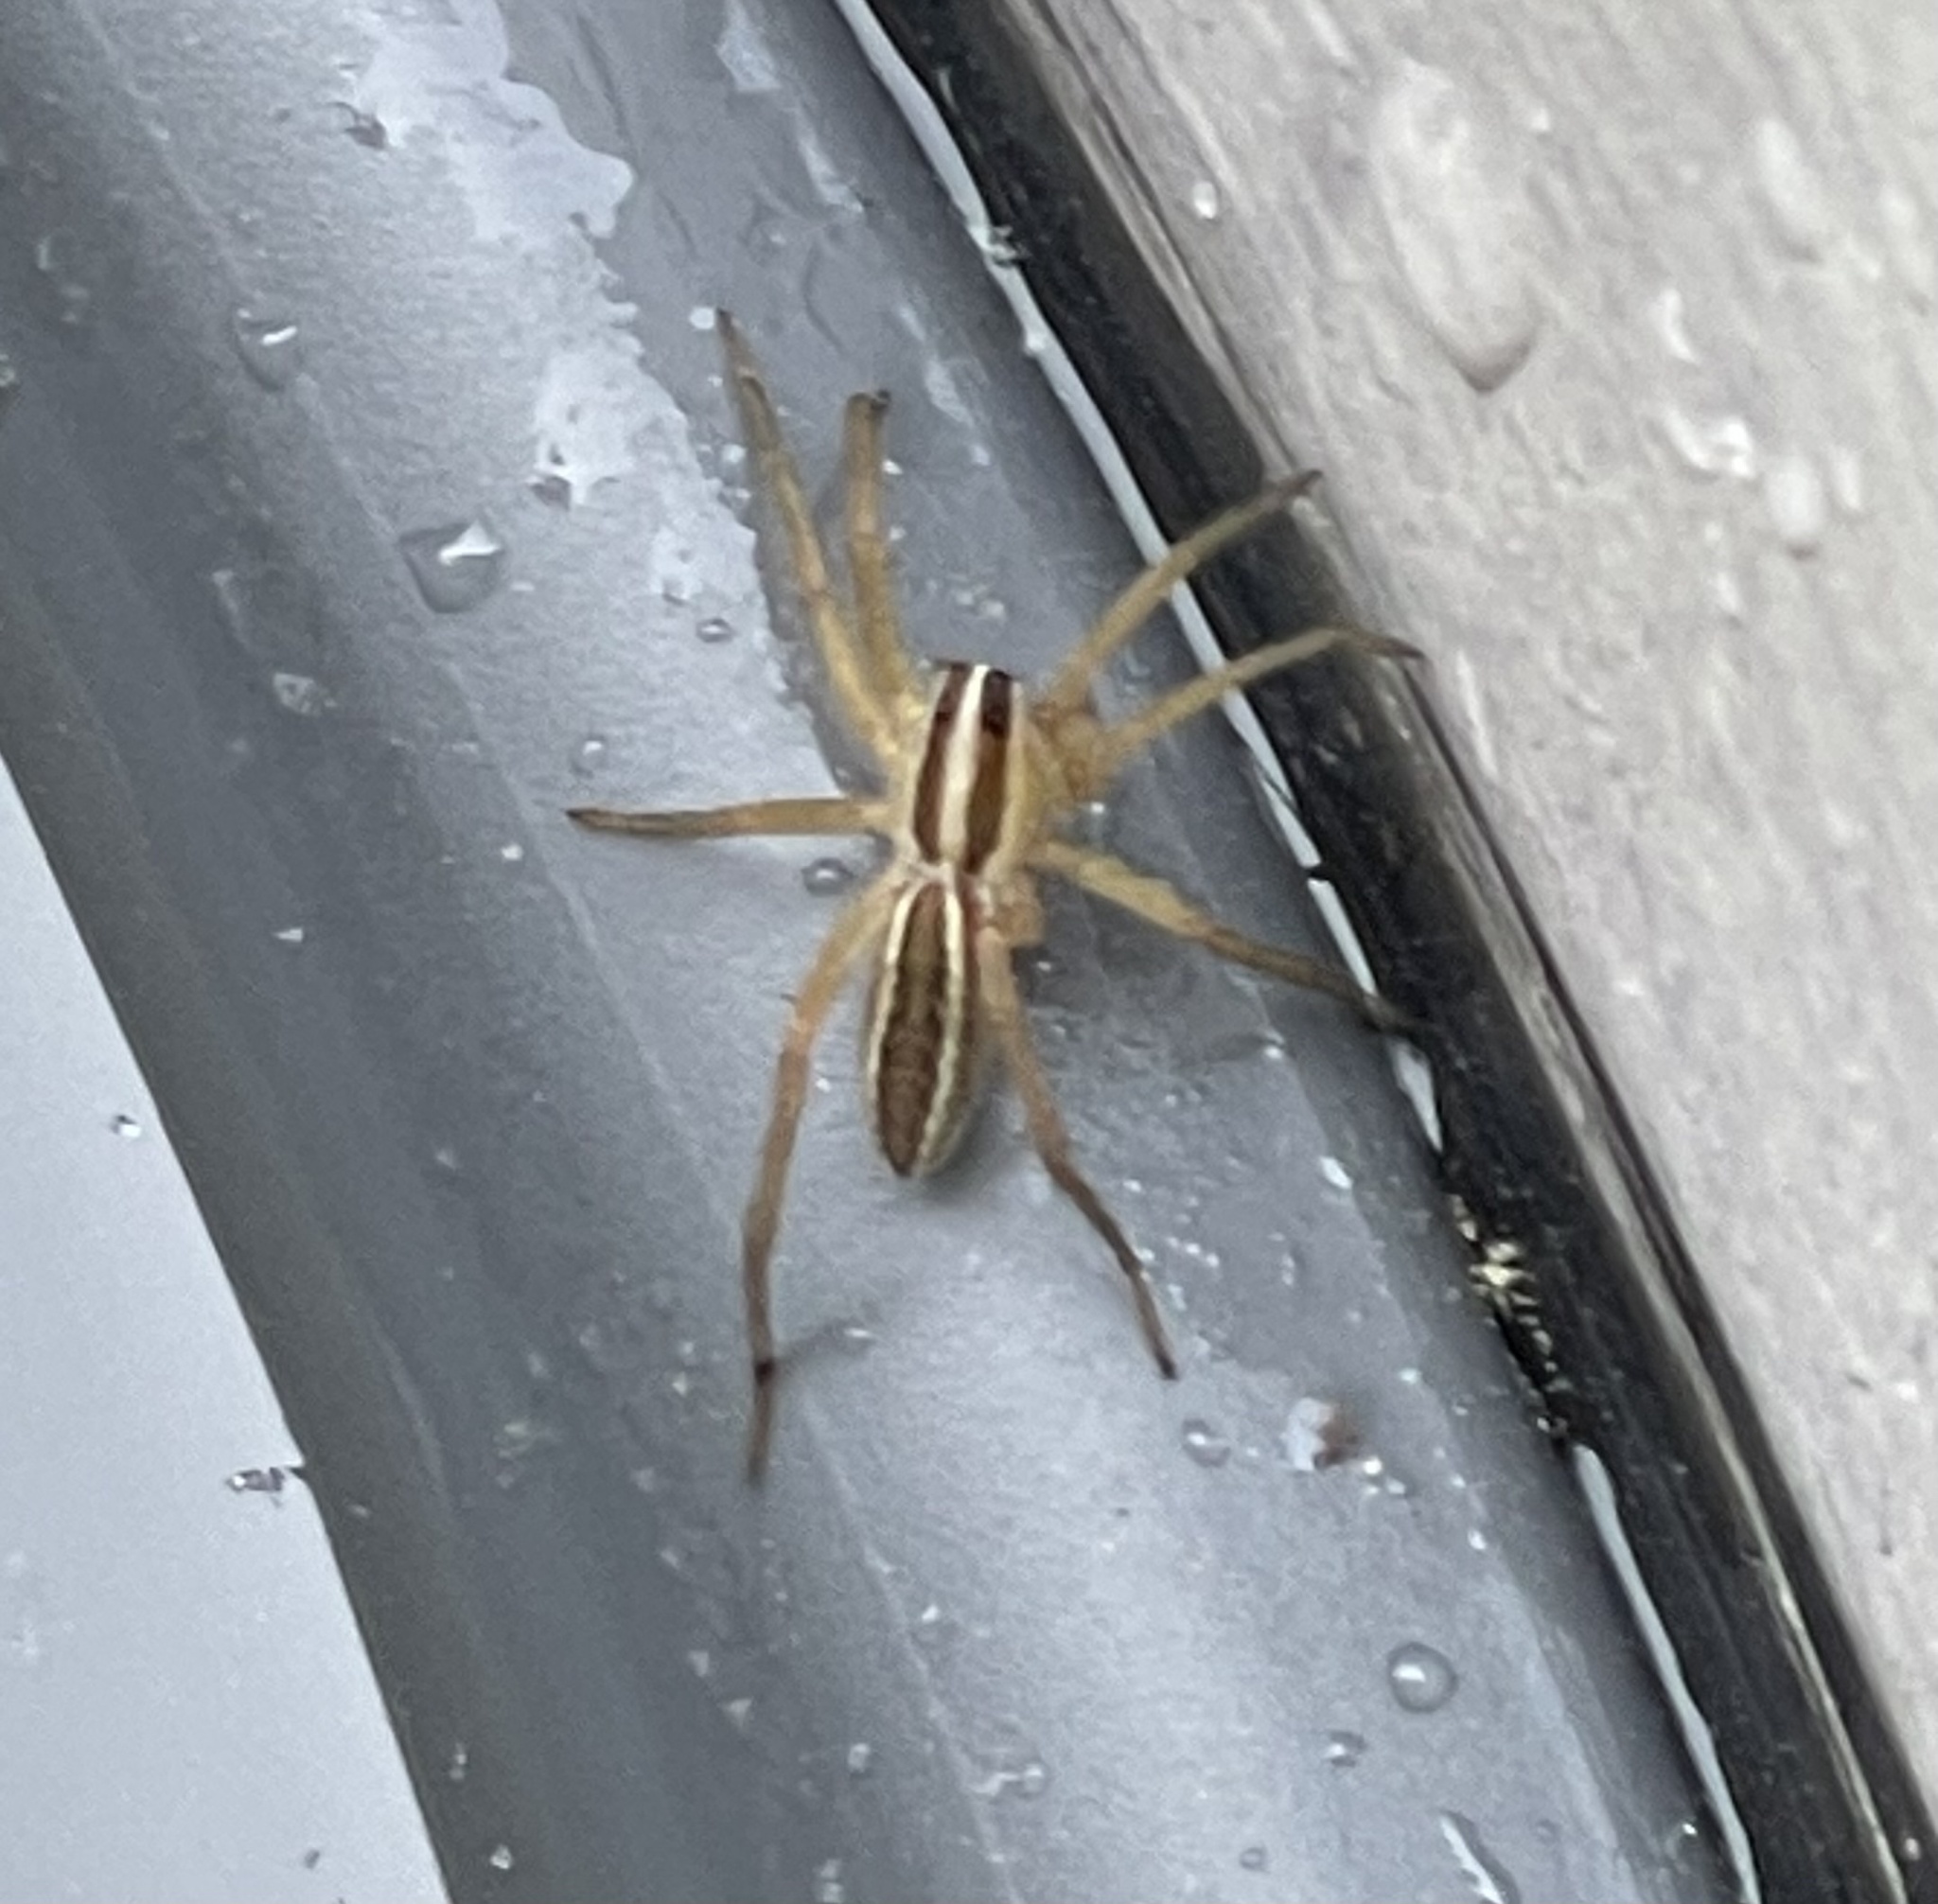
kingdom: Animalia
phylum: Arthropoda
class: Arachnida
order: Araneae
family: Lycosidae
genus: Rabidosa
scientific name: Rabidosa rabida
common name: Rabid wolf spider
